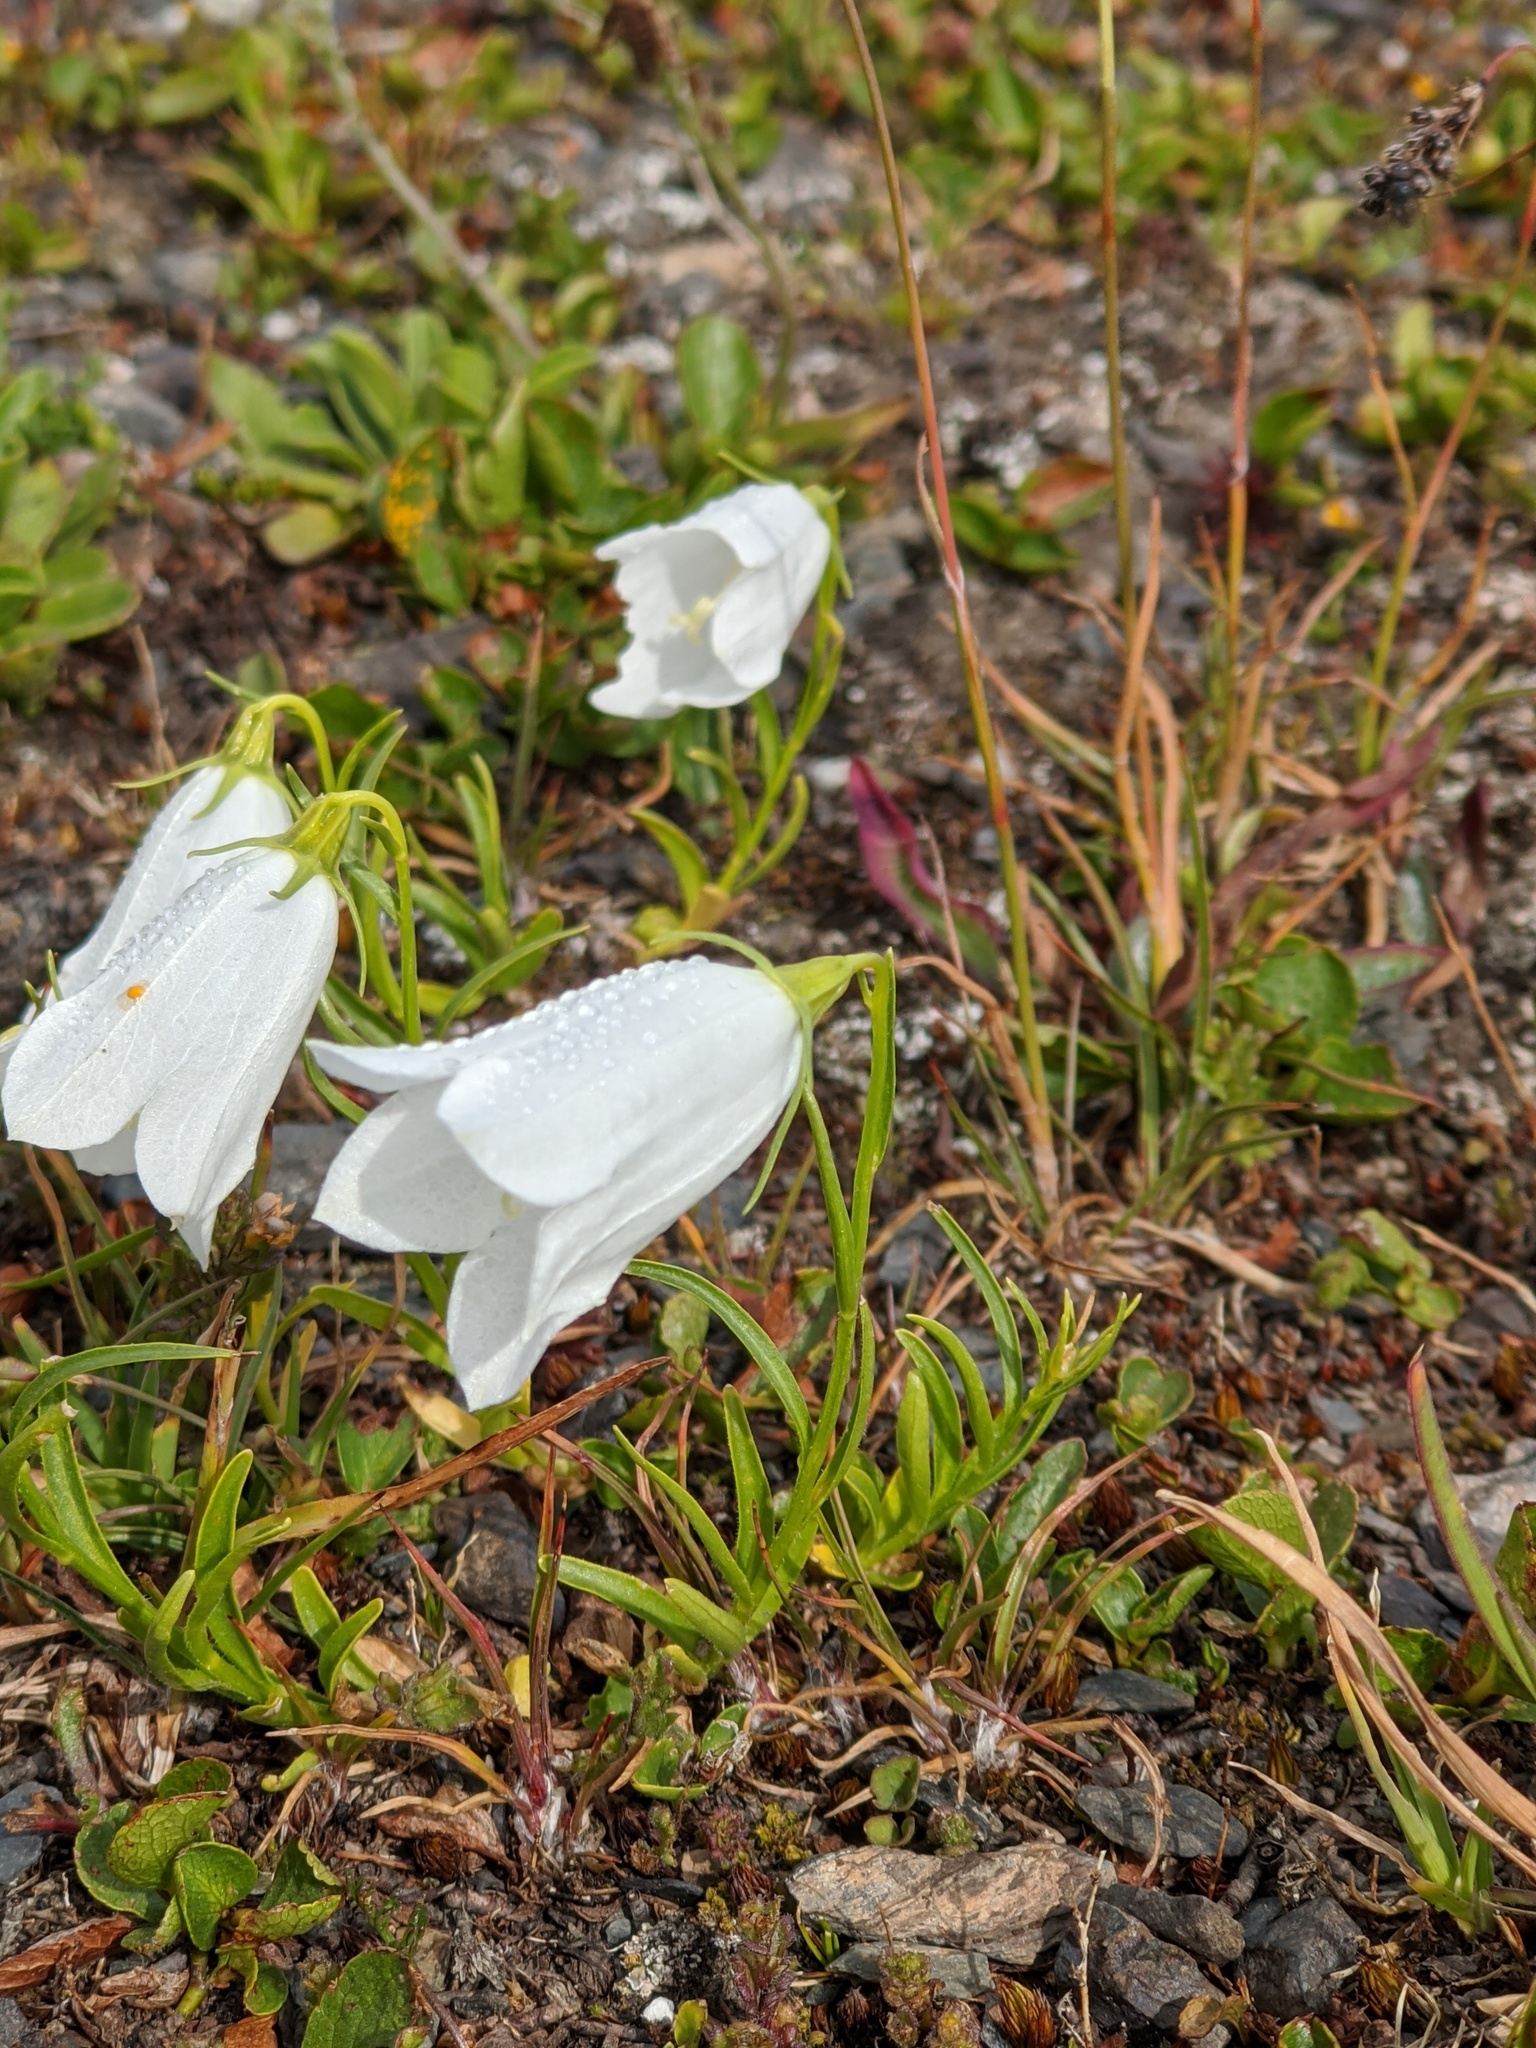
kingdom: Plantae
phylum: Tracheophyta
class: Magnoliopsida
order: Asterales
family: Campanulaceae
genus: Campanula
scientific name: Campanula scheuchzeri
